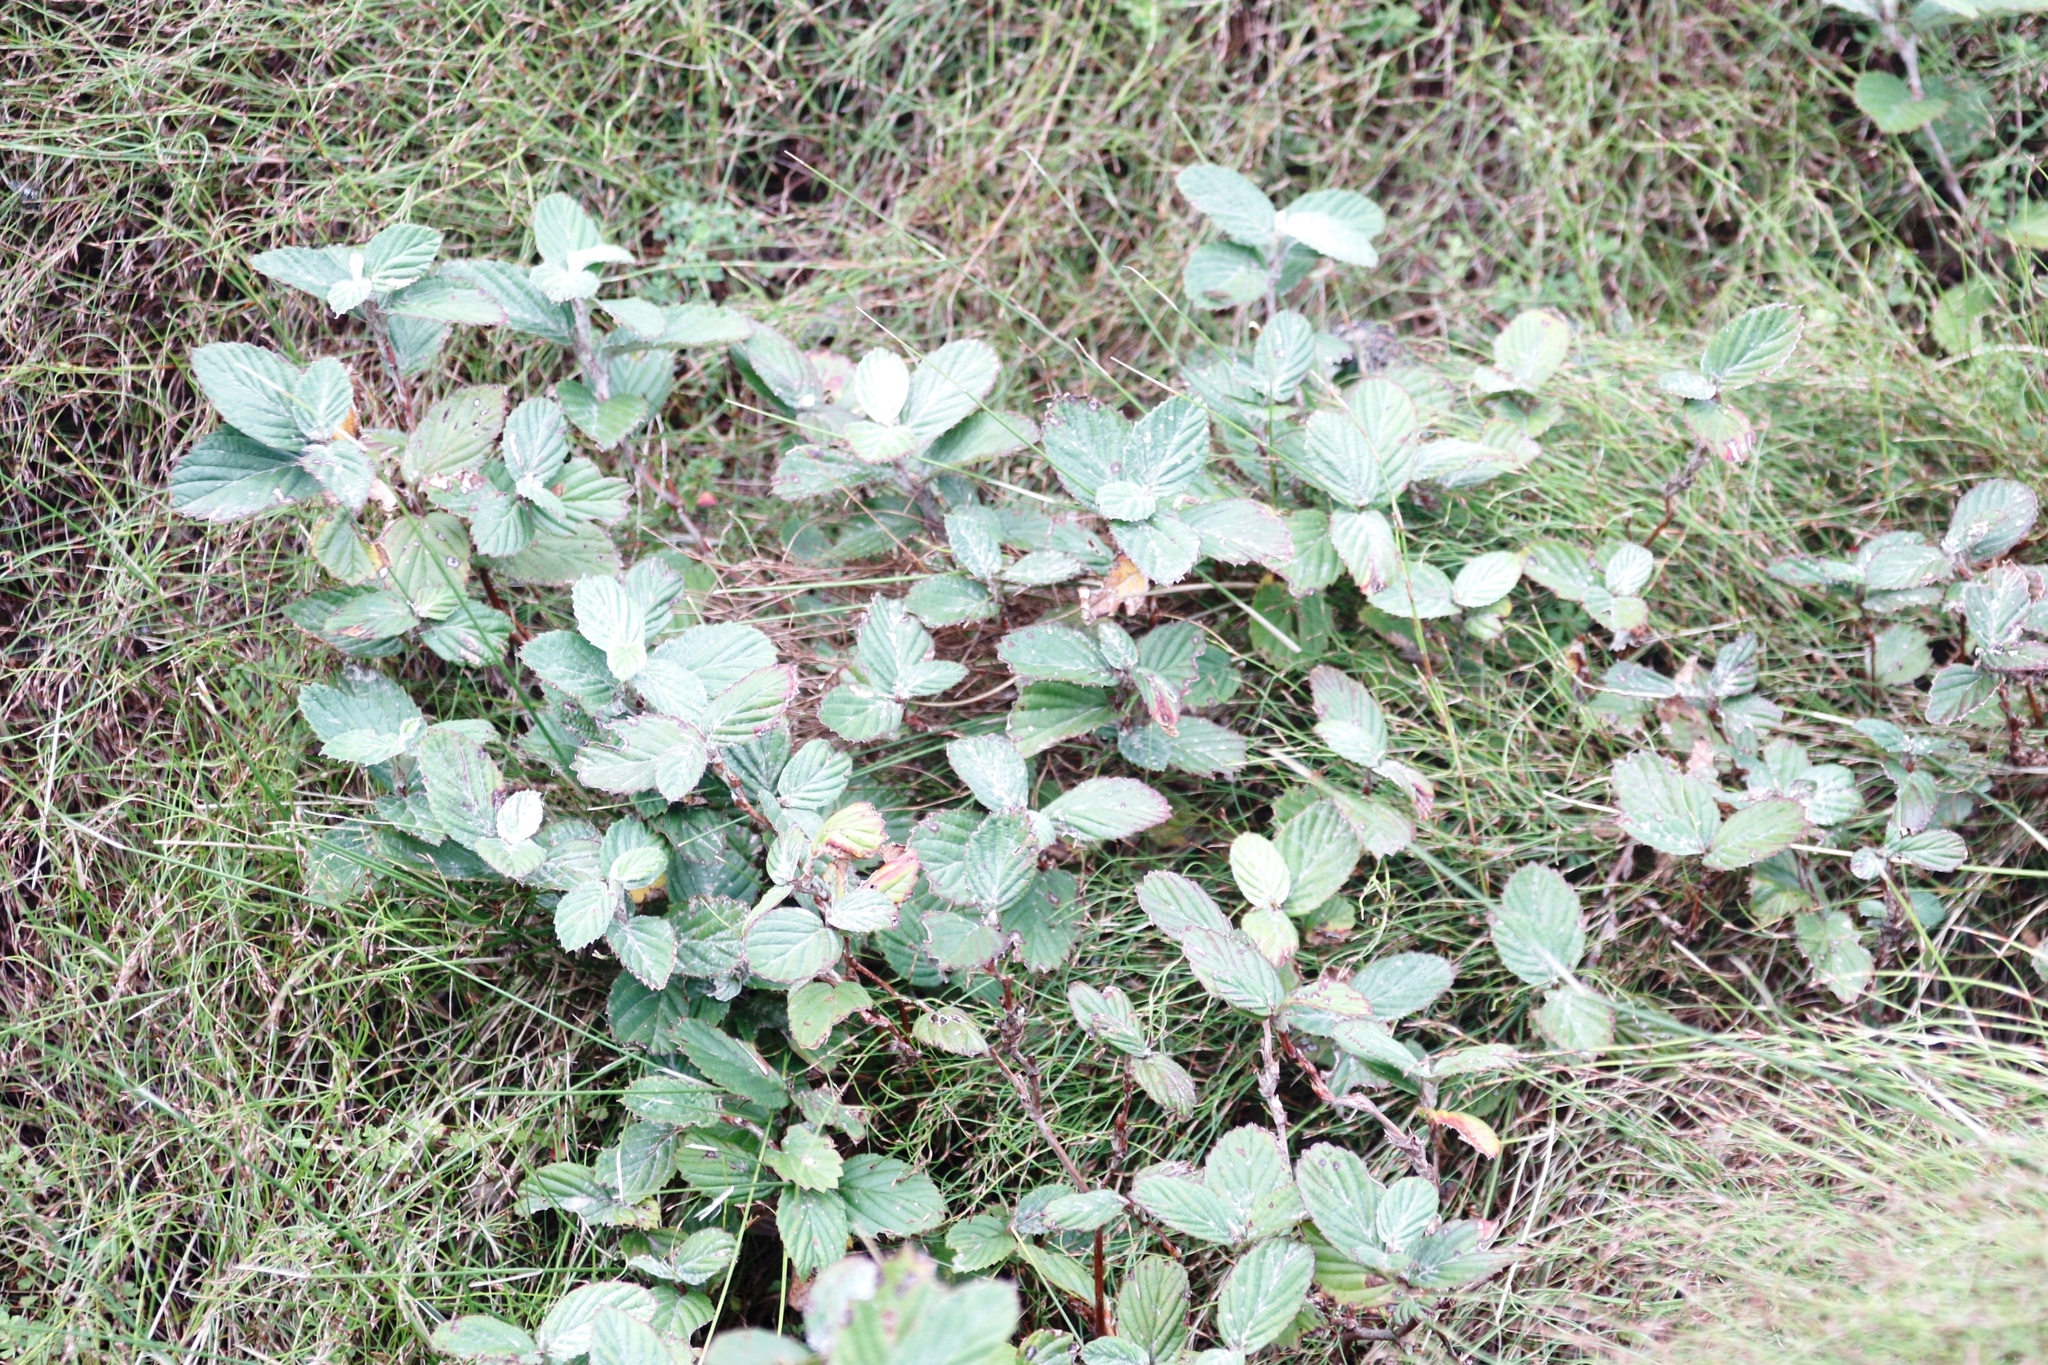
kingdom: Plantae
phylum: Tracheophyta
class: Magnoliopsida
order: Rosales
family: Rosaceae
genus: Cliffortia
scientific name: Cliffortia odorata
